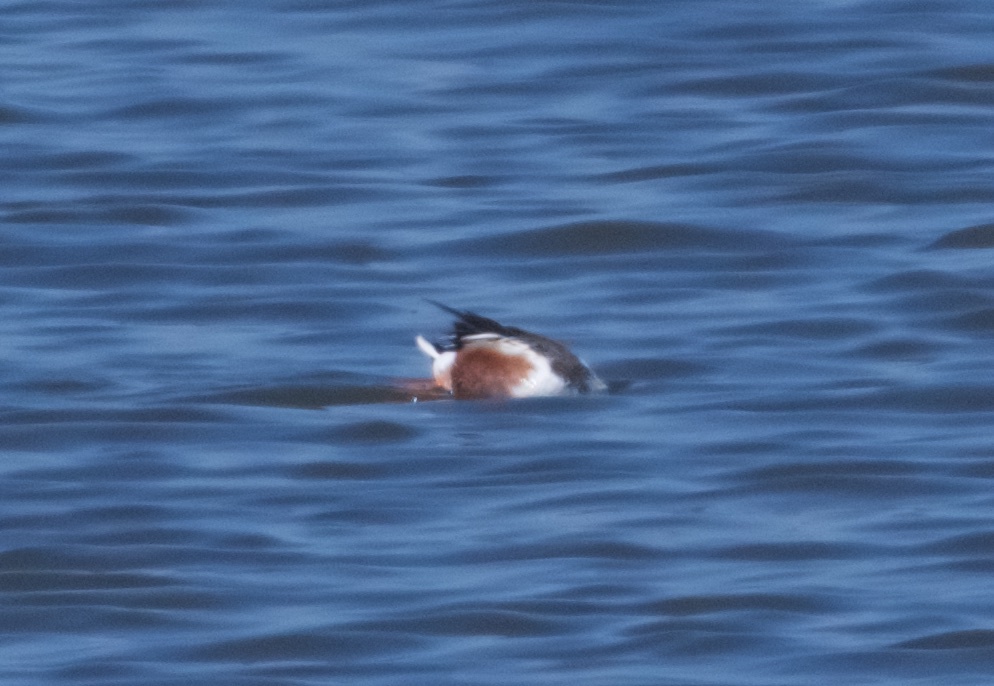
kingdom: Animalia
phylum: Chordata
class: Aves
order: Anseriformes
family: Anatidae
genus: Spatula
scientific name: Spatula clypeata
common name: Northern shoveler
